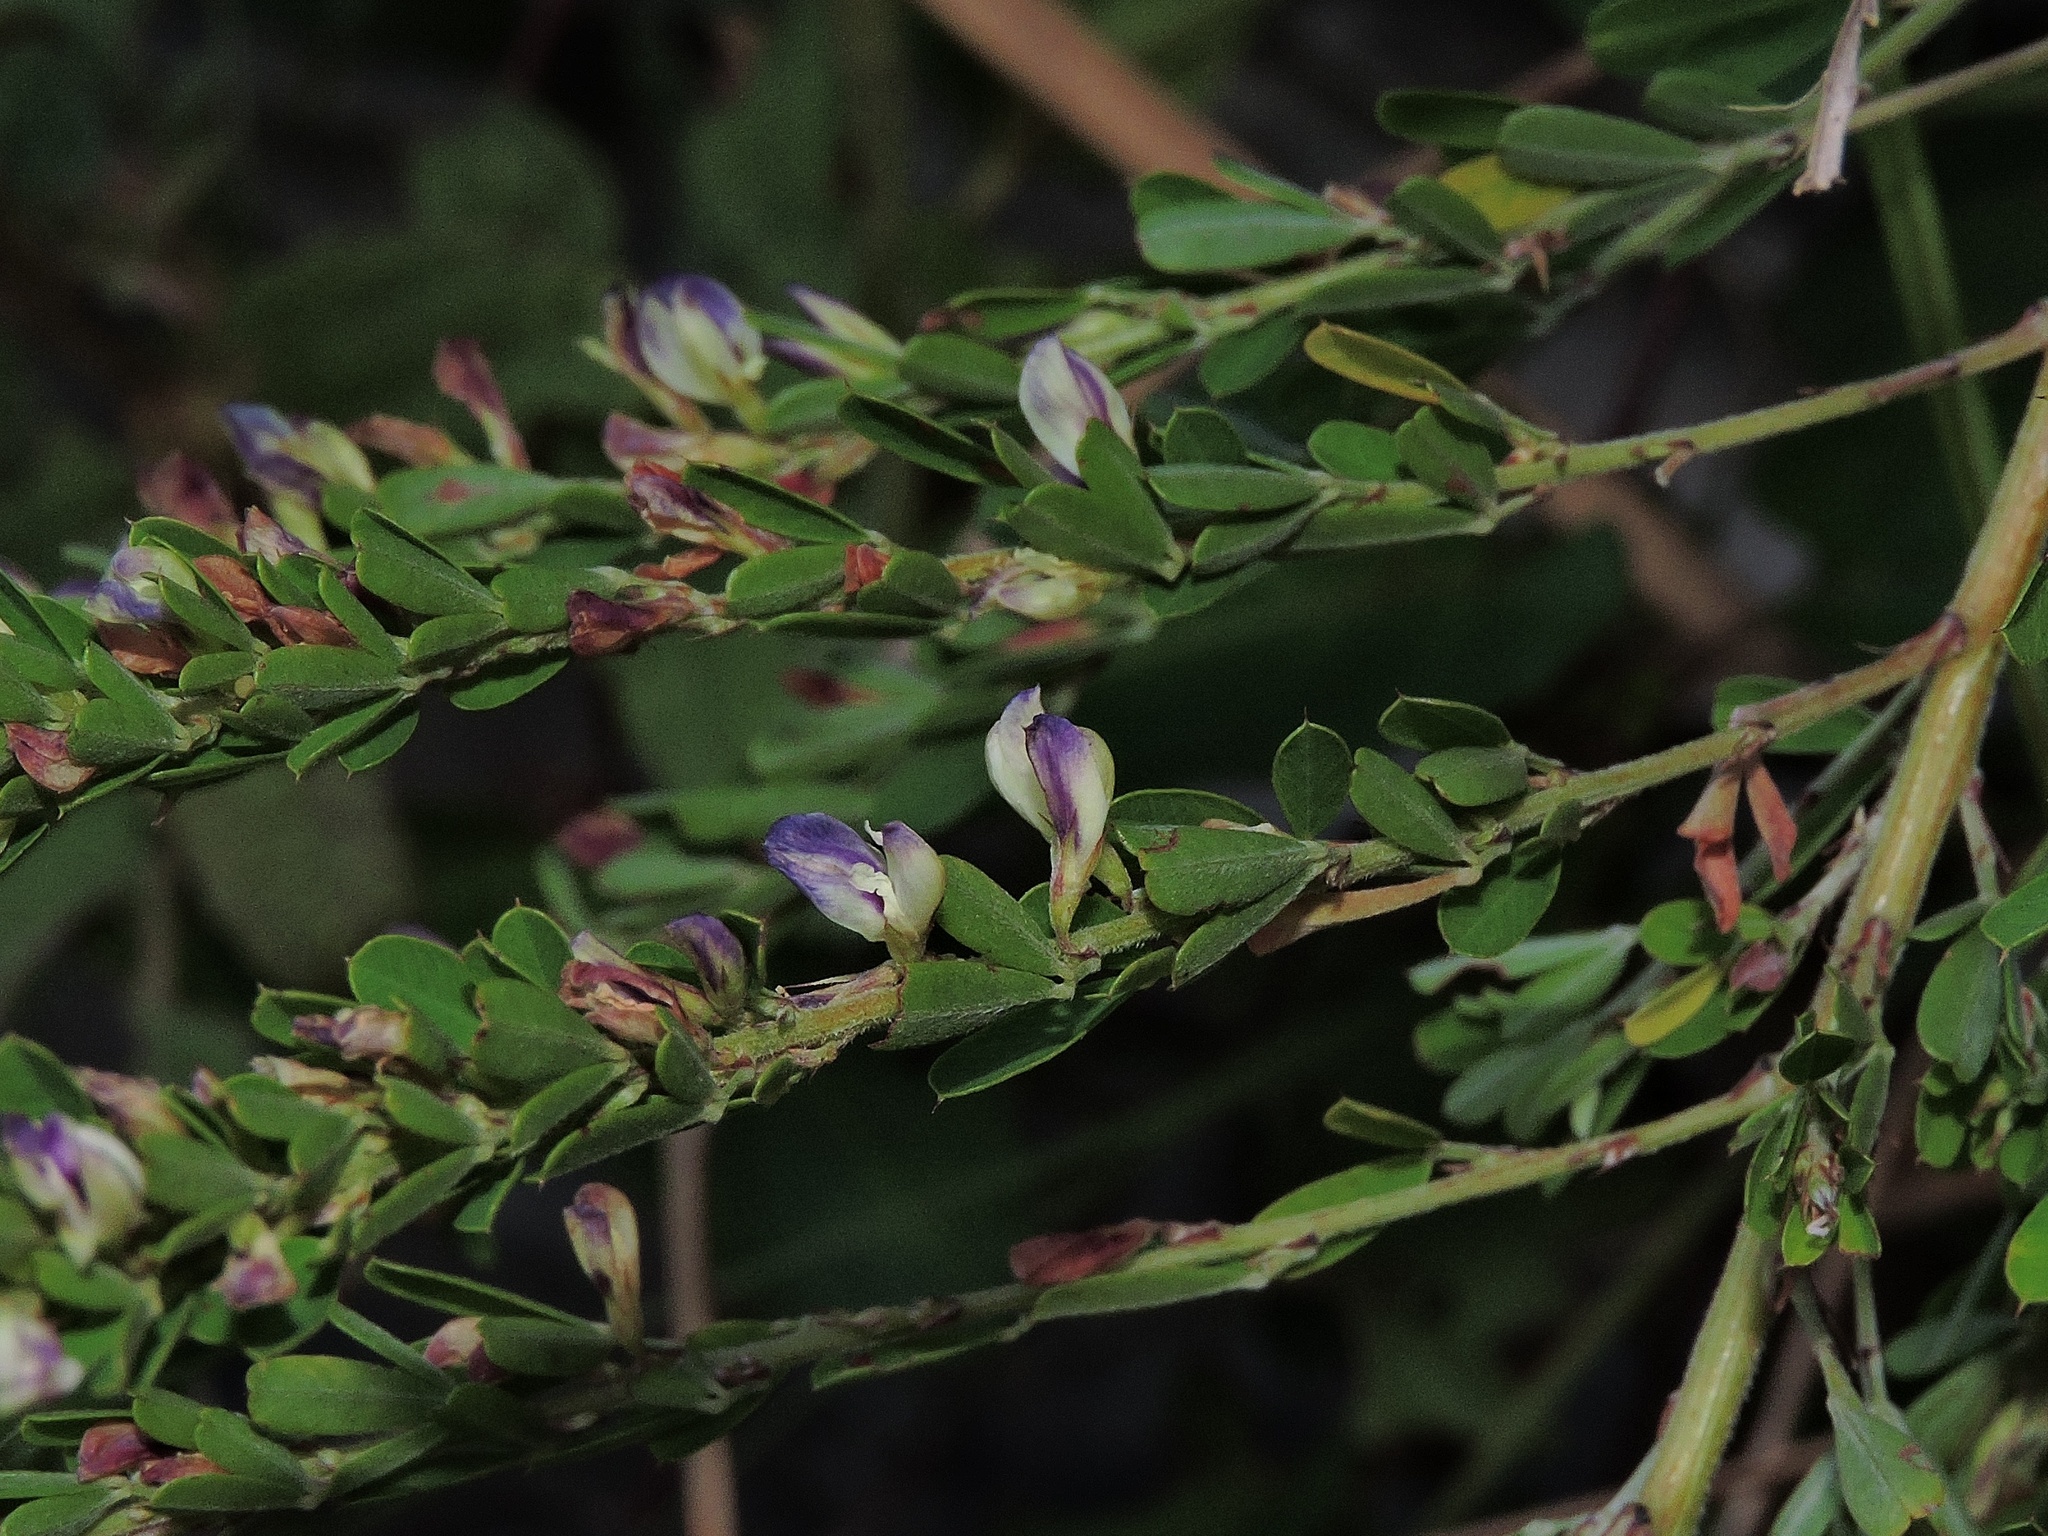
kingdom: Plantae
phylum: Tracheophyta
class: Magnoliopsida
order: Fabales
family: Fabaceae
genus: Lespedeza
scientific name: Lespedeza cuneata
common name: Chinese bush-clover
